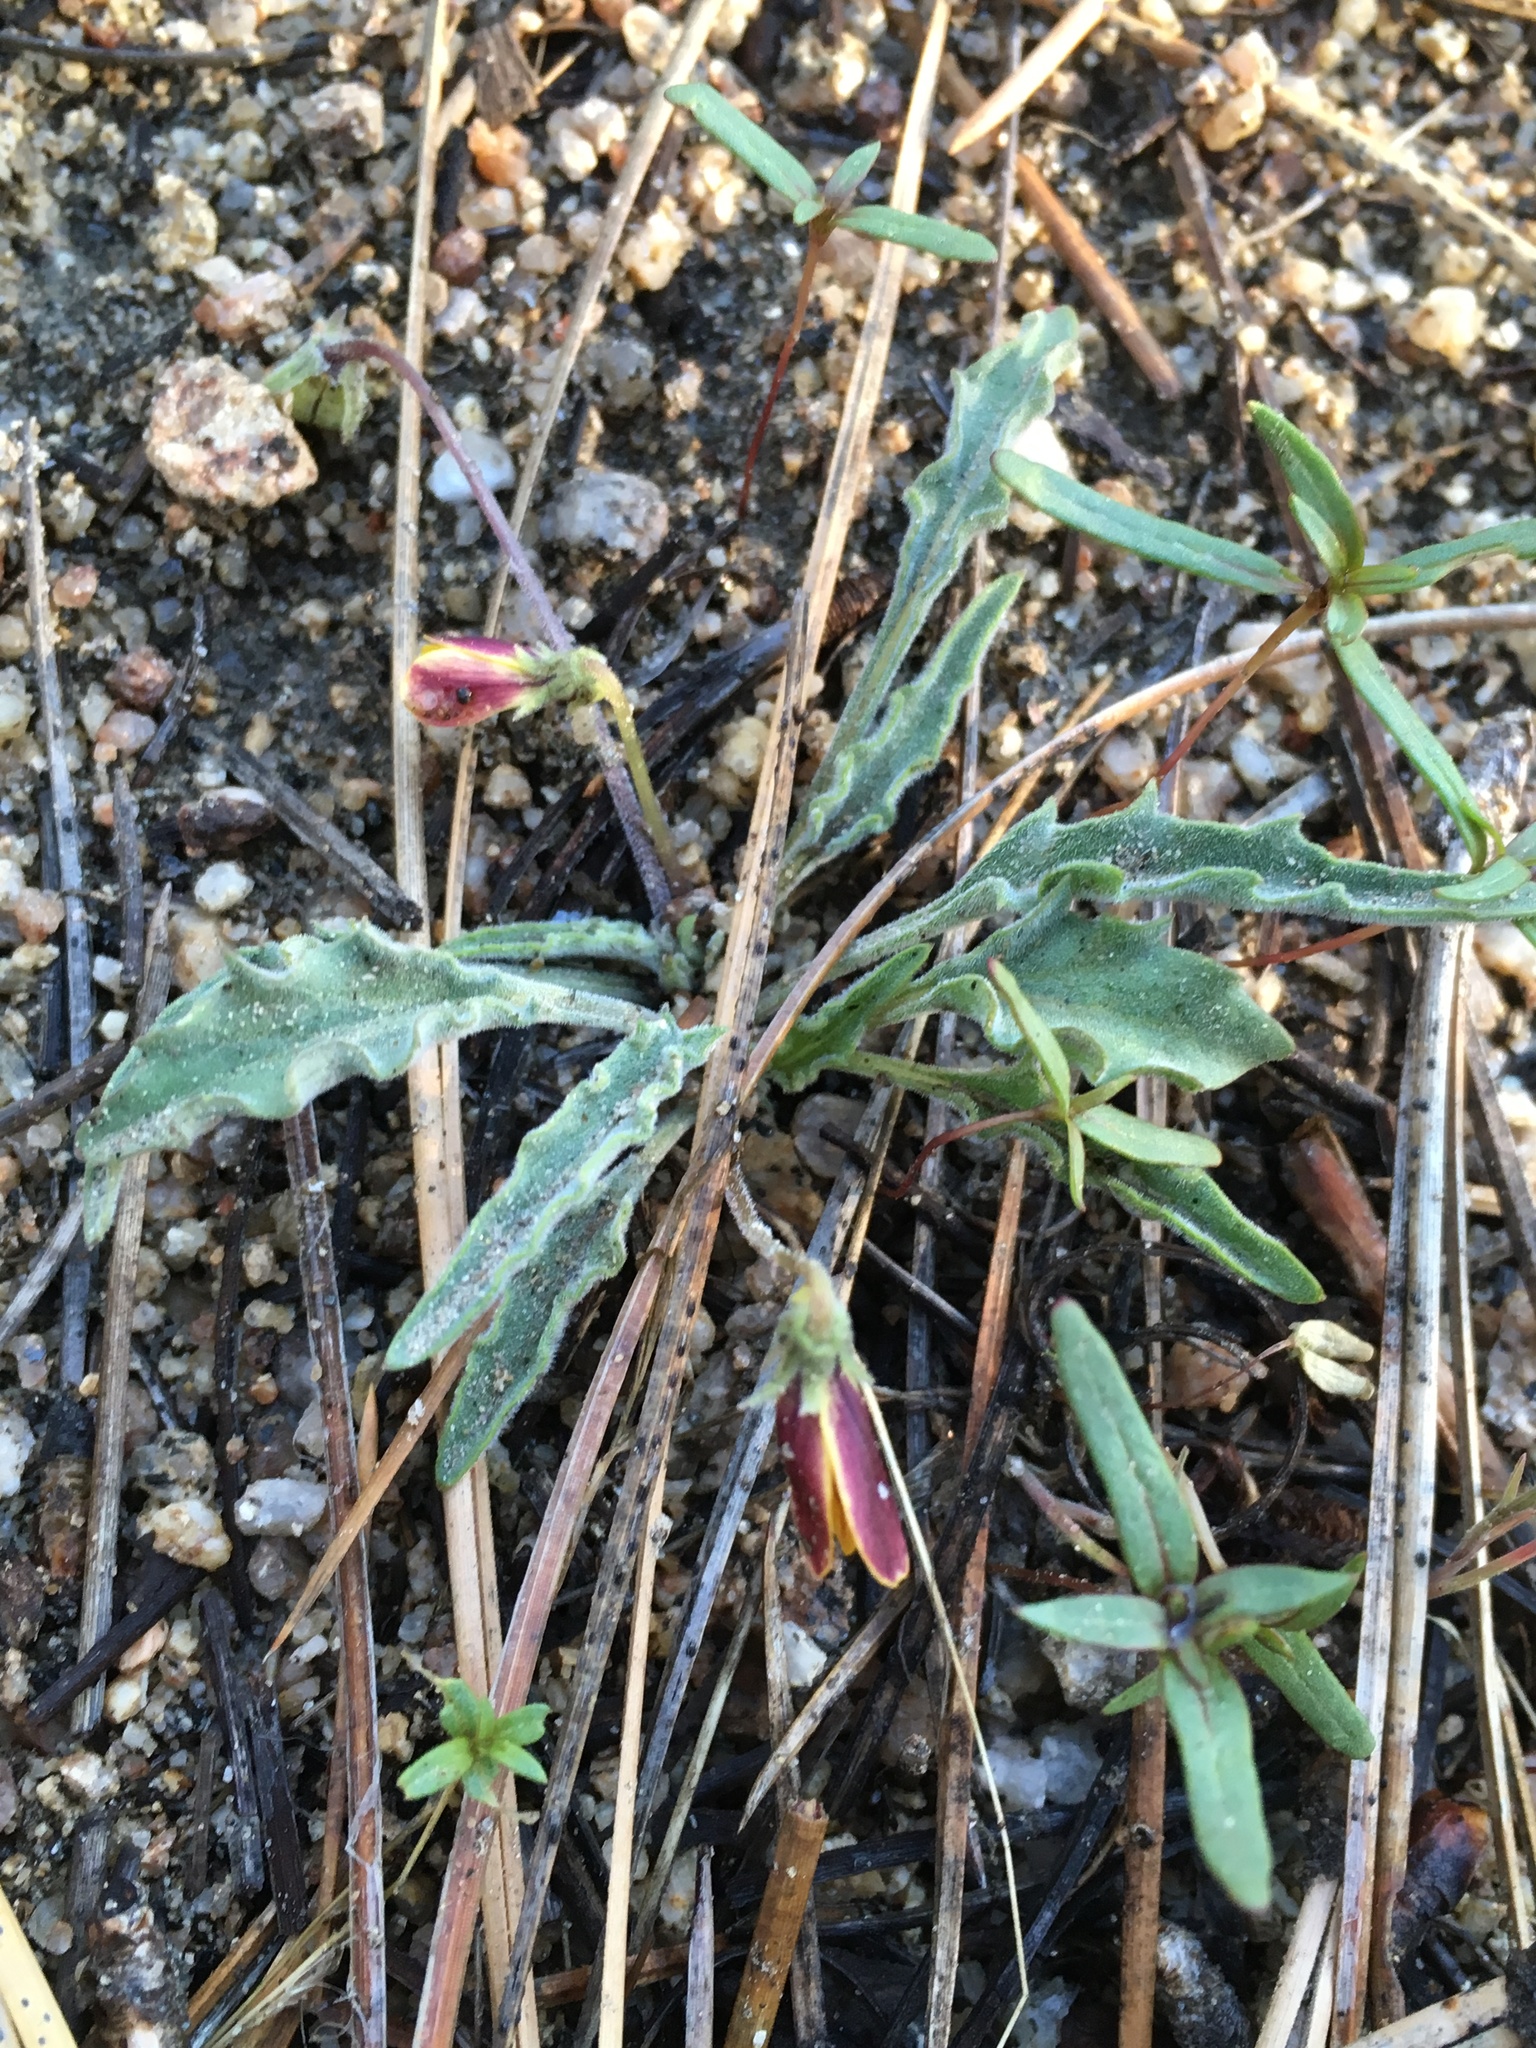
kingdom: Plantae
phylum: Tracheophyta
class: Magnoliopsida
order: Malpighiales
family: Violaceae
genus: Viola
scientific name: Viola pinetorum
